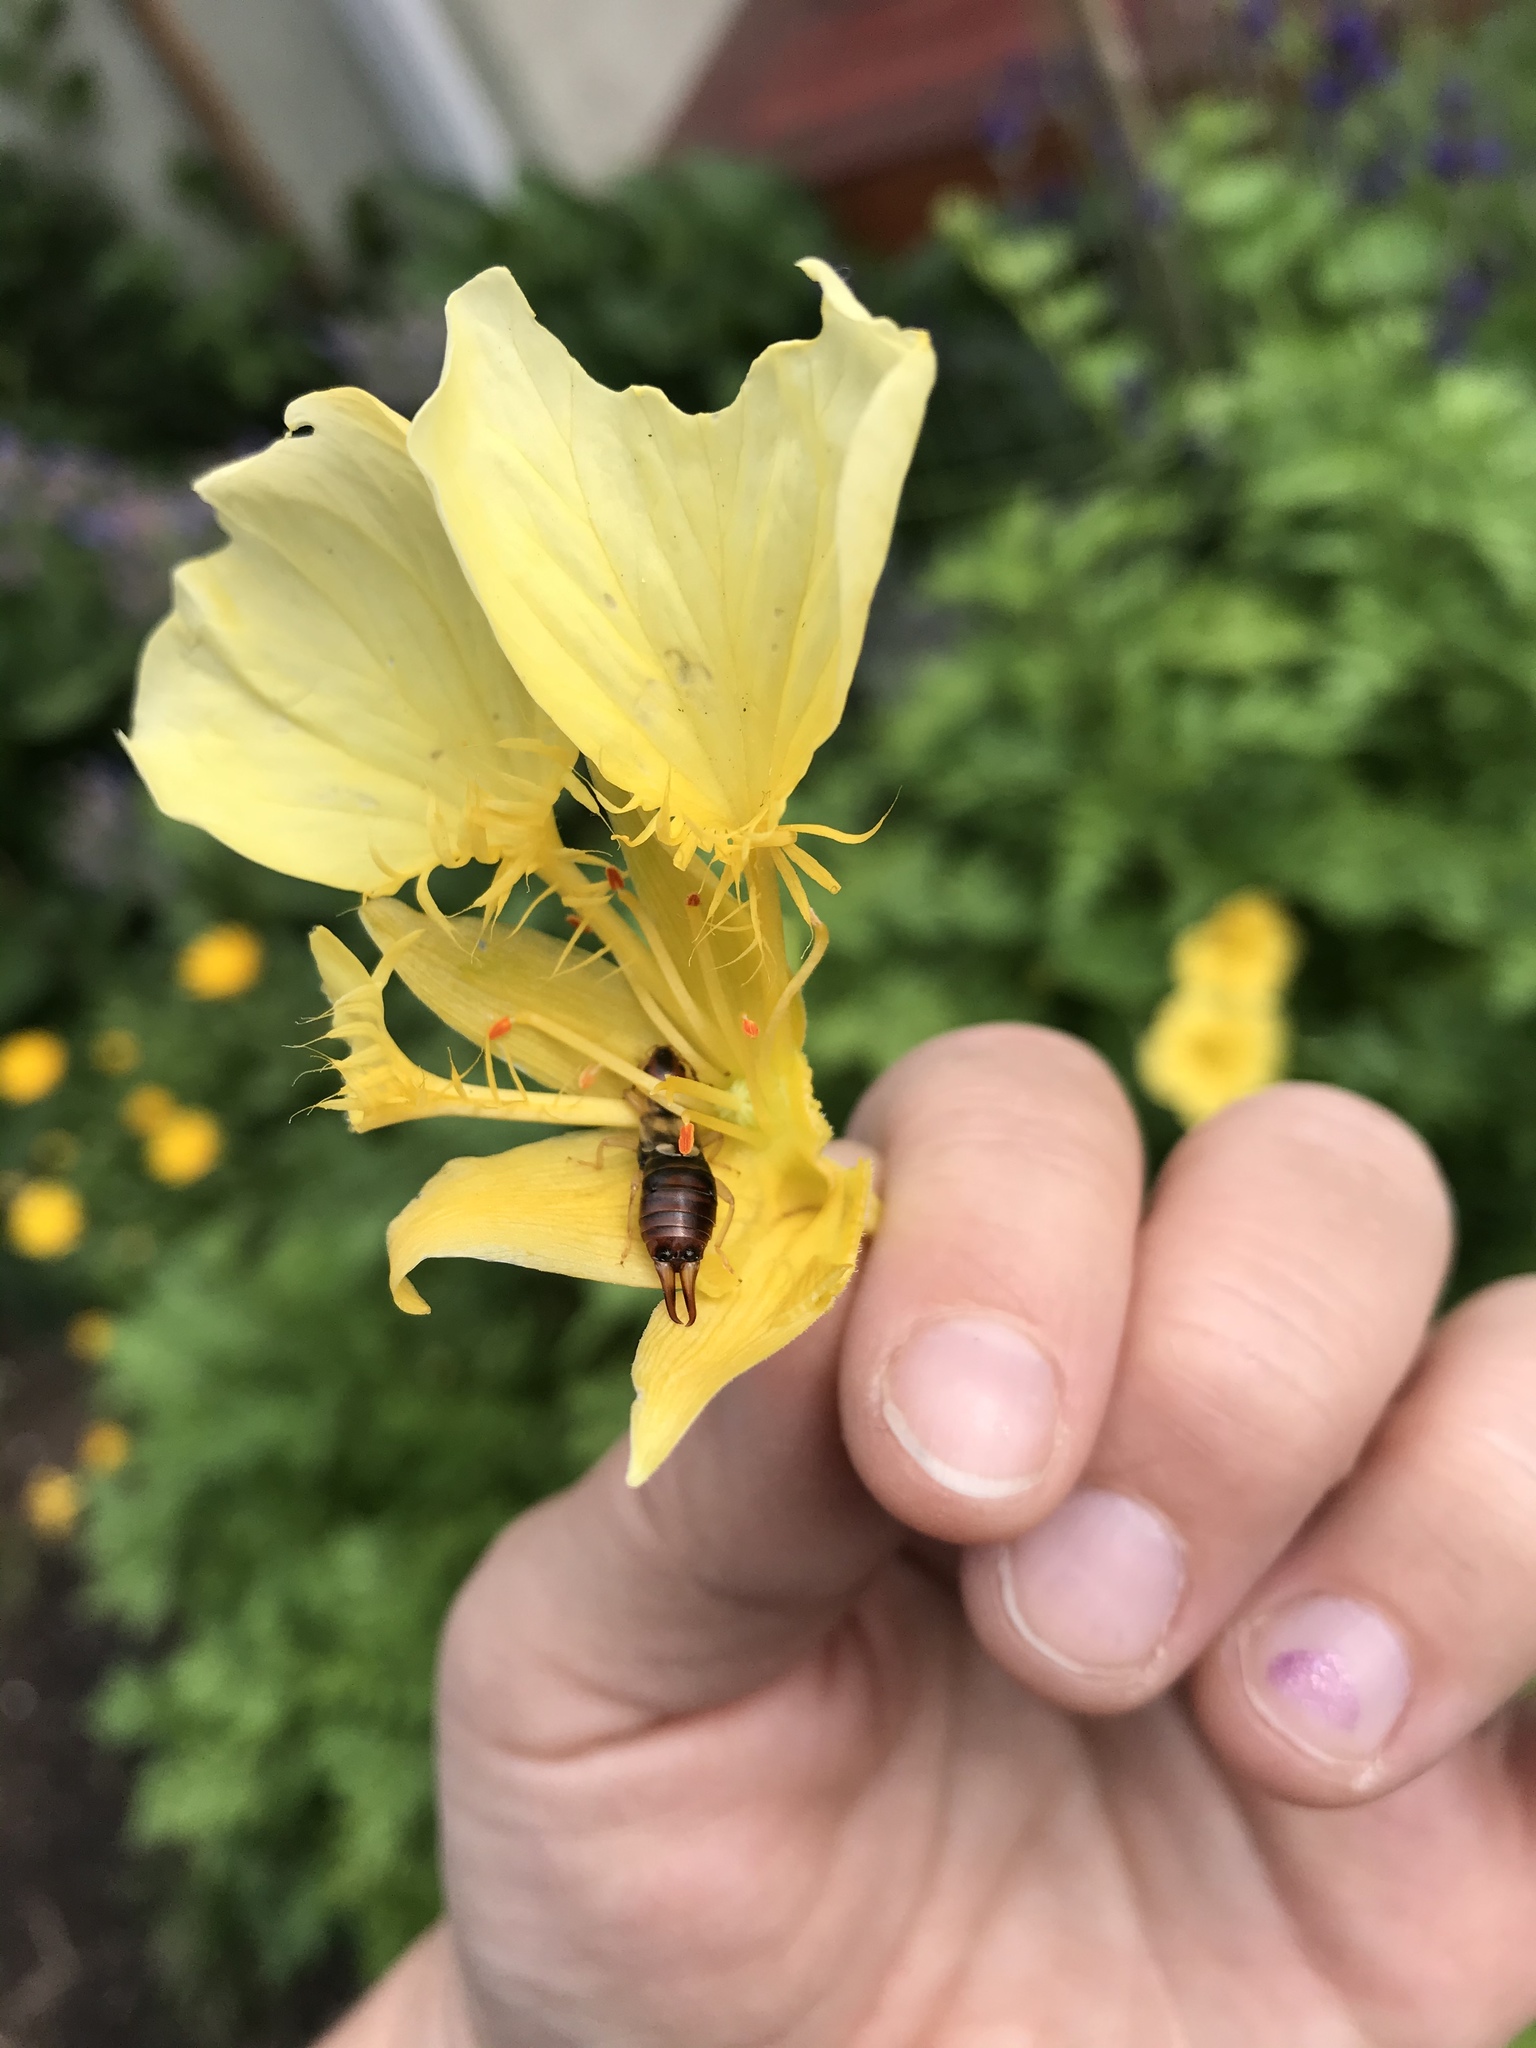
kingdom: Animalia
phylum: Arthropoda
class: Insecta
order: Dermaptera
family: Forficulidae
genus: Forficula
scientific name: Forficula
